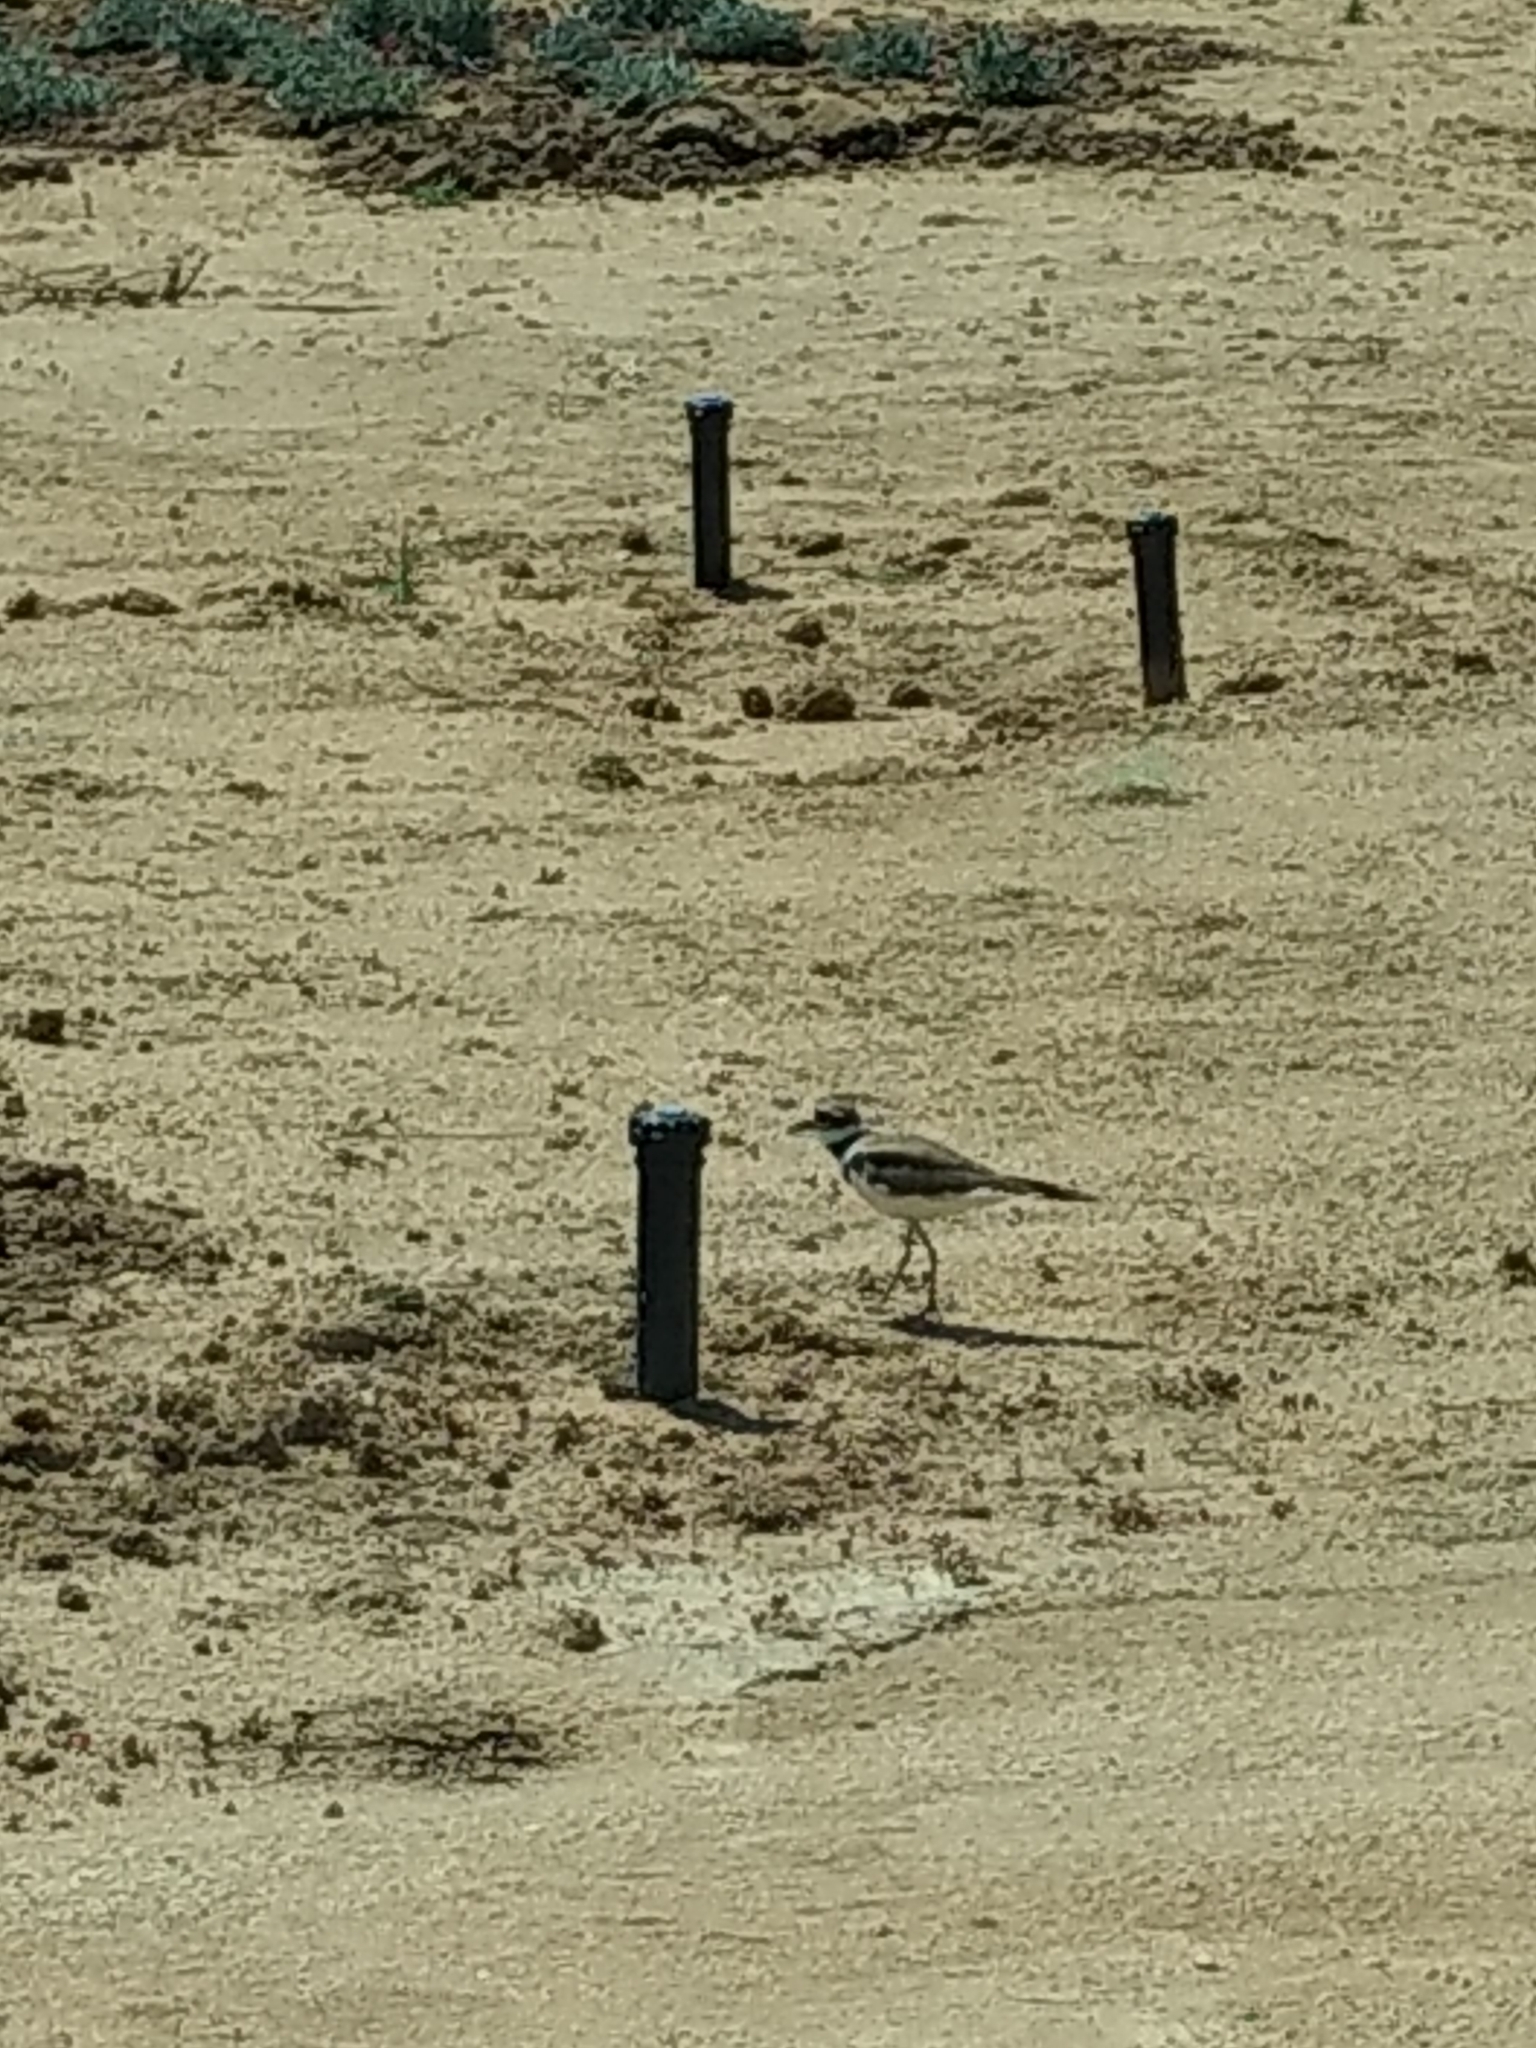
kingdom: Animalia
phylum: Chordata
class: Aves
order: Charadriiformes
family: Charadriidae
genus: Charadrius
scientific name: Charadrius vociferus
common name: Killdeer
